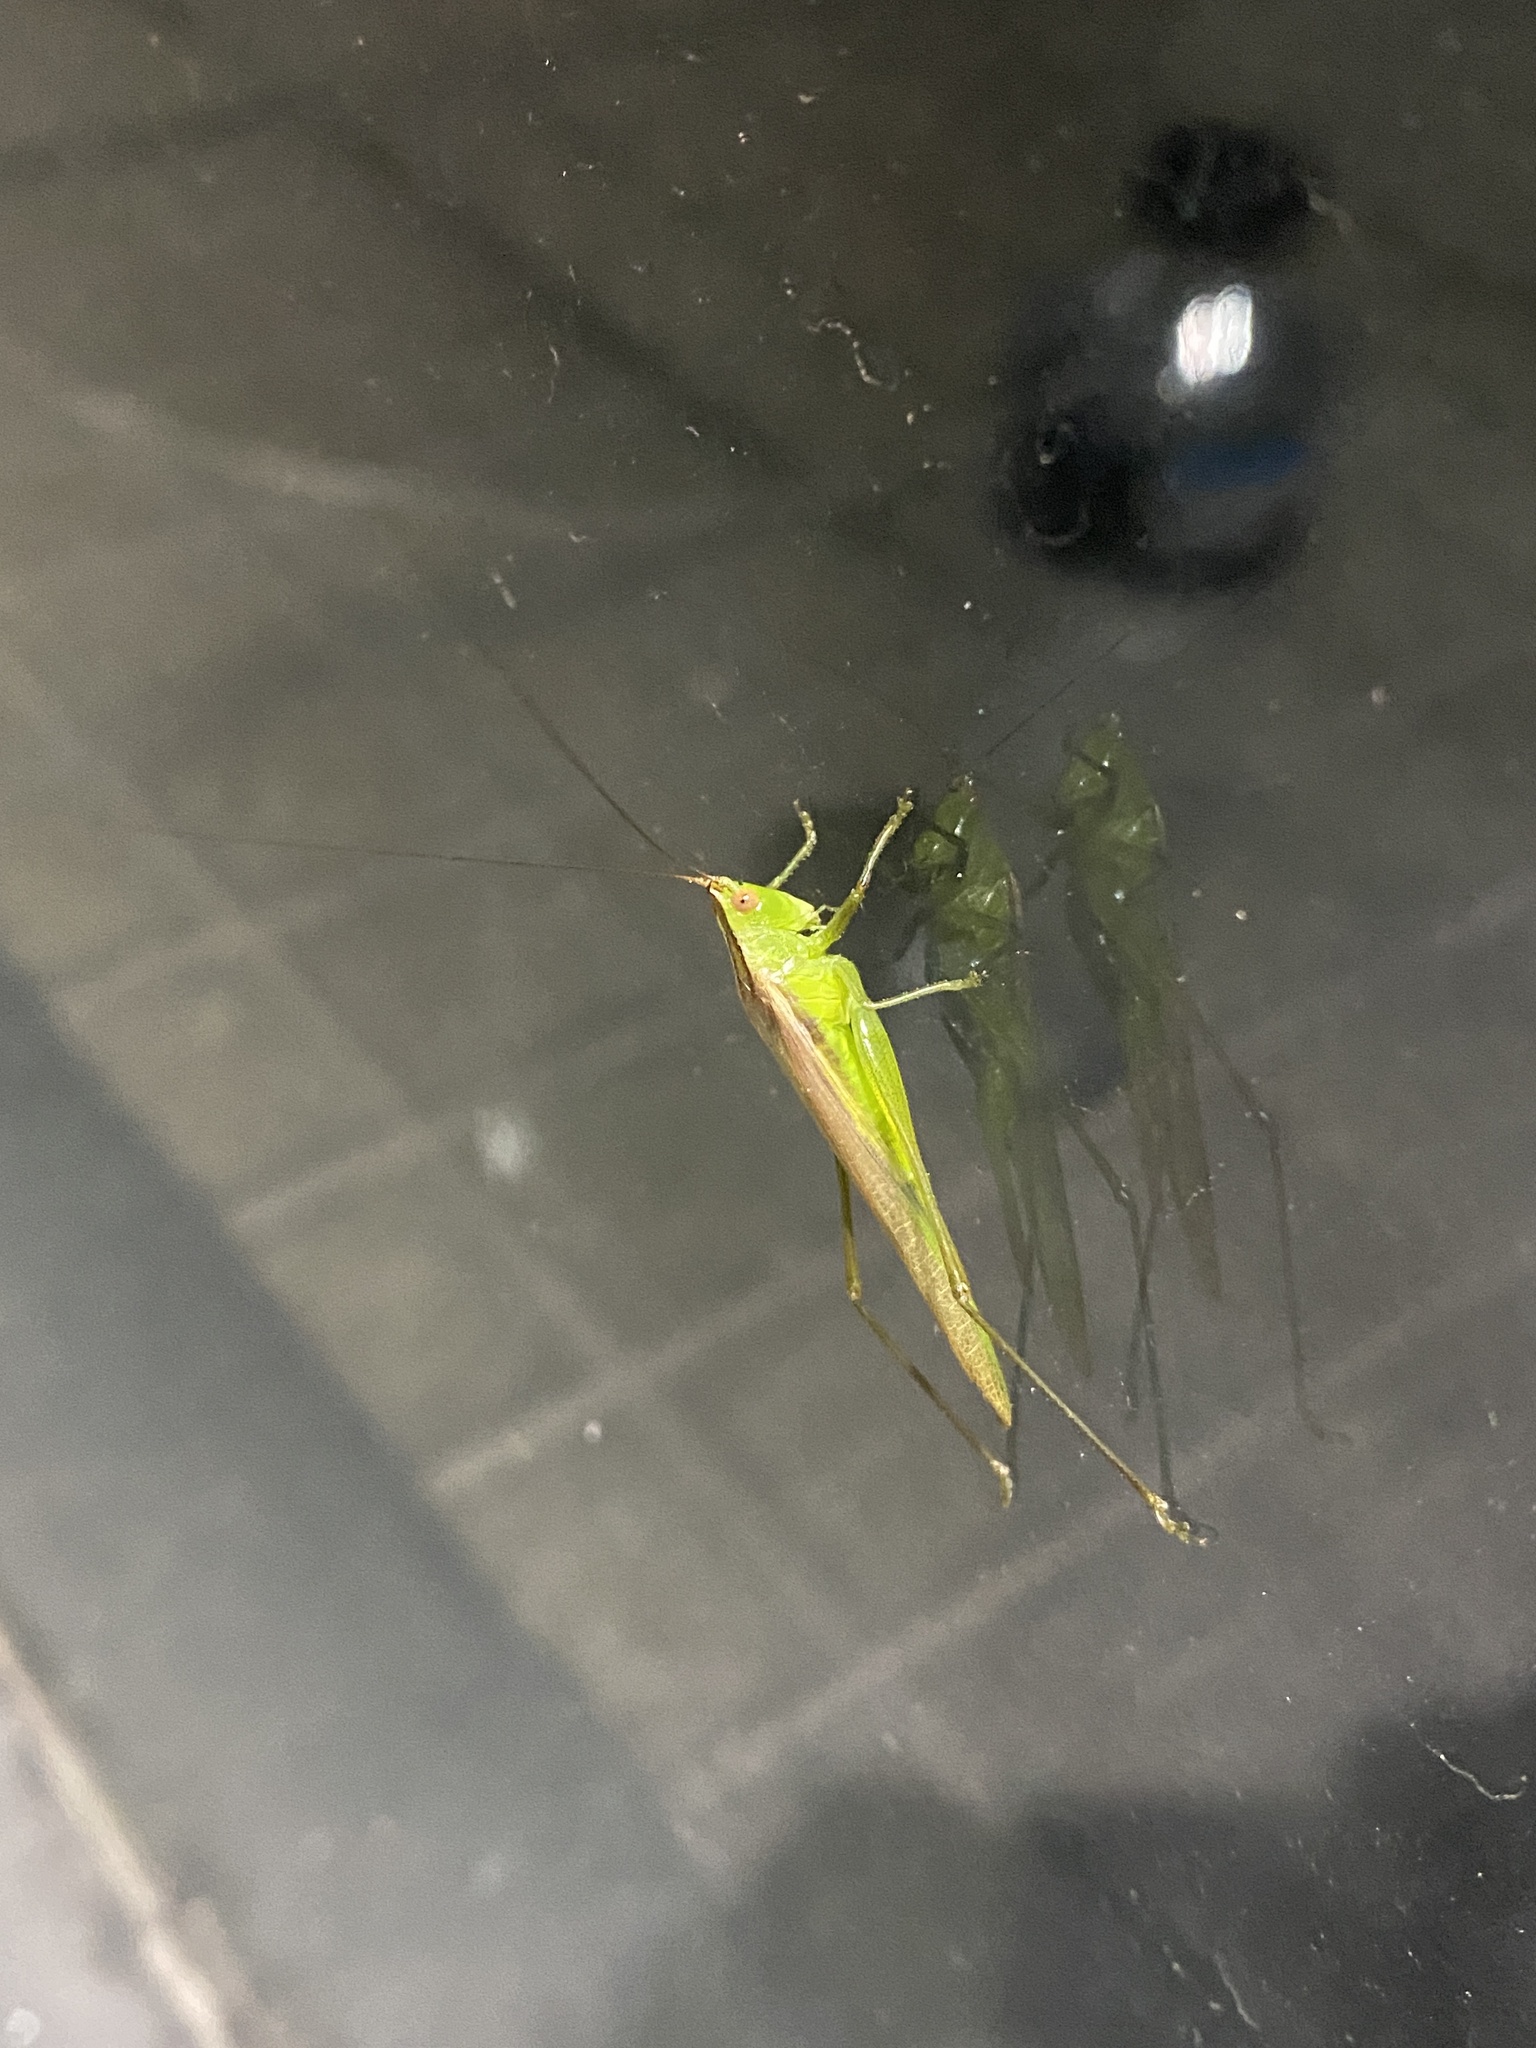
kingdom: Animalia
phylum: Arthropoda
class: Insecta
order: Orthoptera
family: Tettigoniidae
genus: Conocephalus
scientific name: Conocephalus longipes
